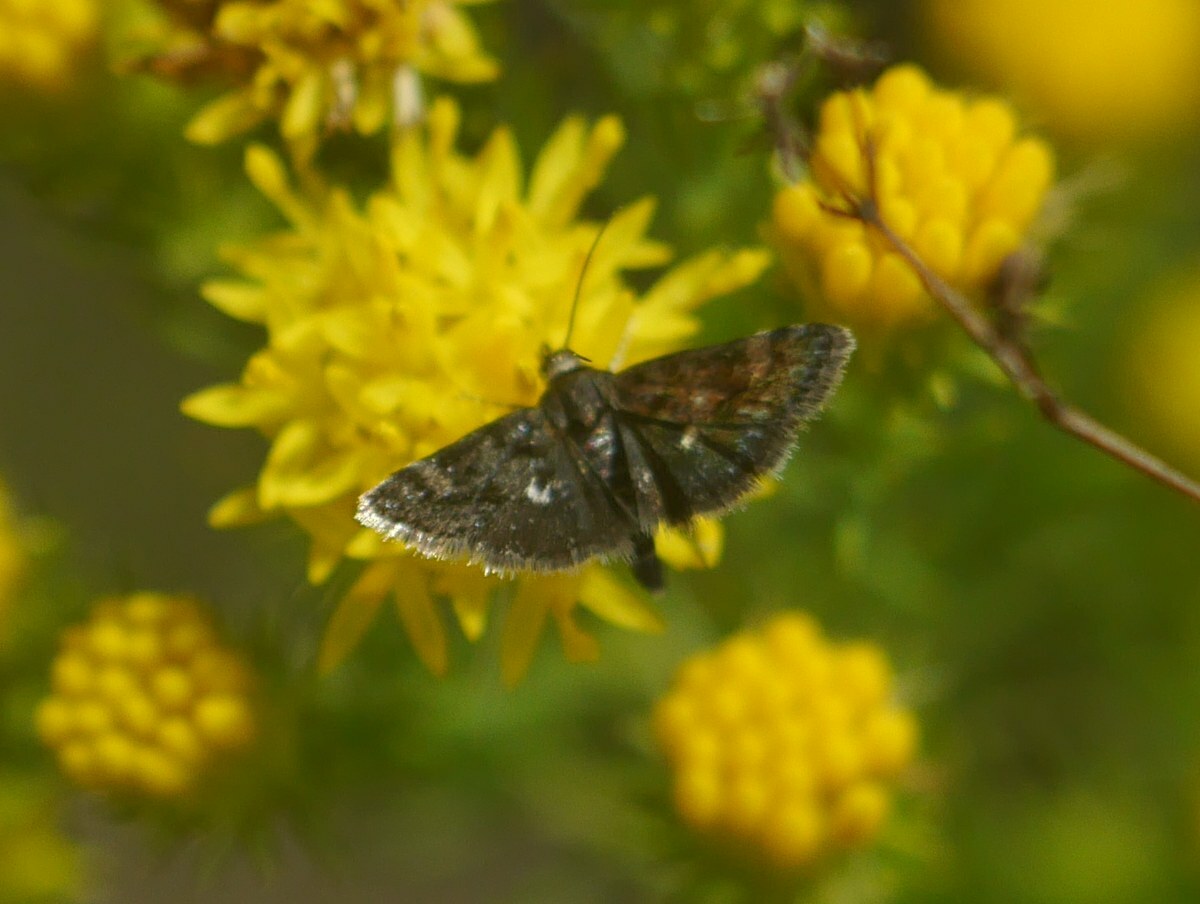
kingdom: Animalia
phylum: Arthropoda
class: Insecta
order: Lepidoptera
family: Crambidae
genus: Heliothela
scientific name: Heliothela wulfeniana
